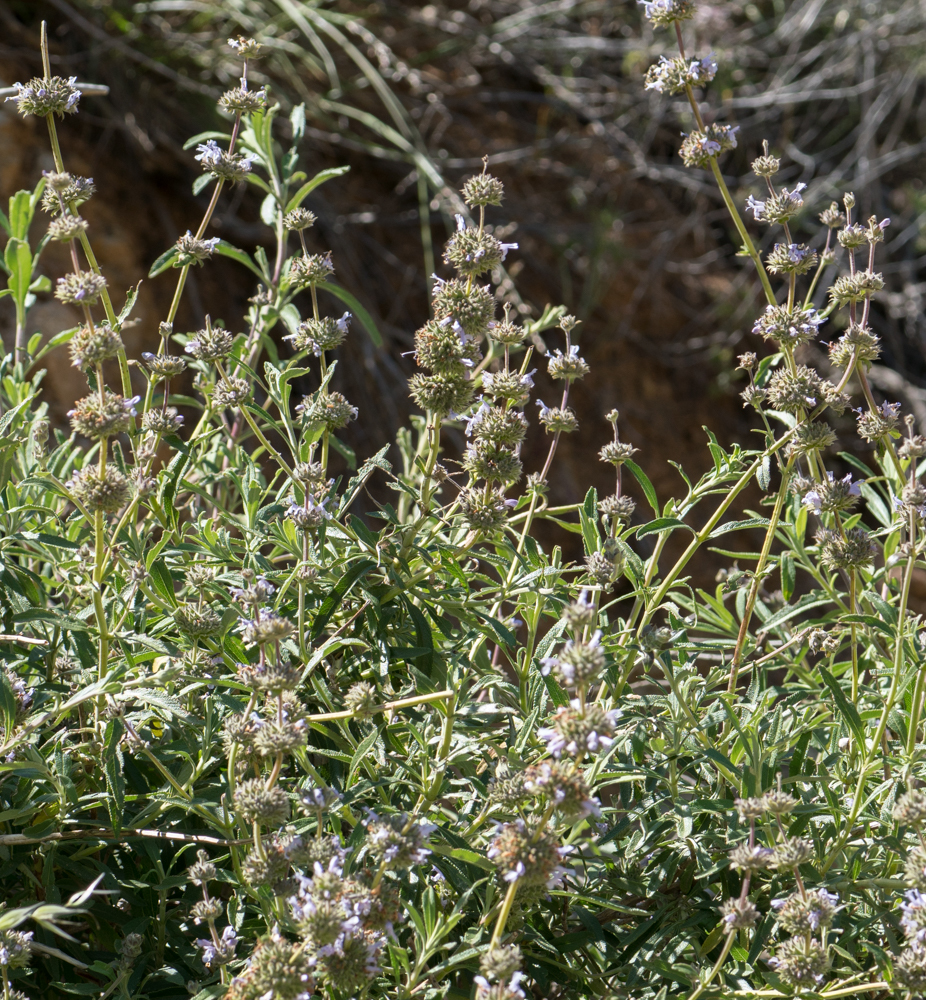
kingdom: Plantae
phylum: Tracheophyta
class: Magnoliopsida
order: Lamiales
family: Lamiaceae
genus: Salvia
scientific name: Salvia mellifera
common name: Black sage
